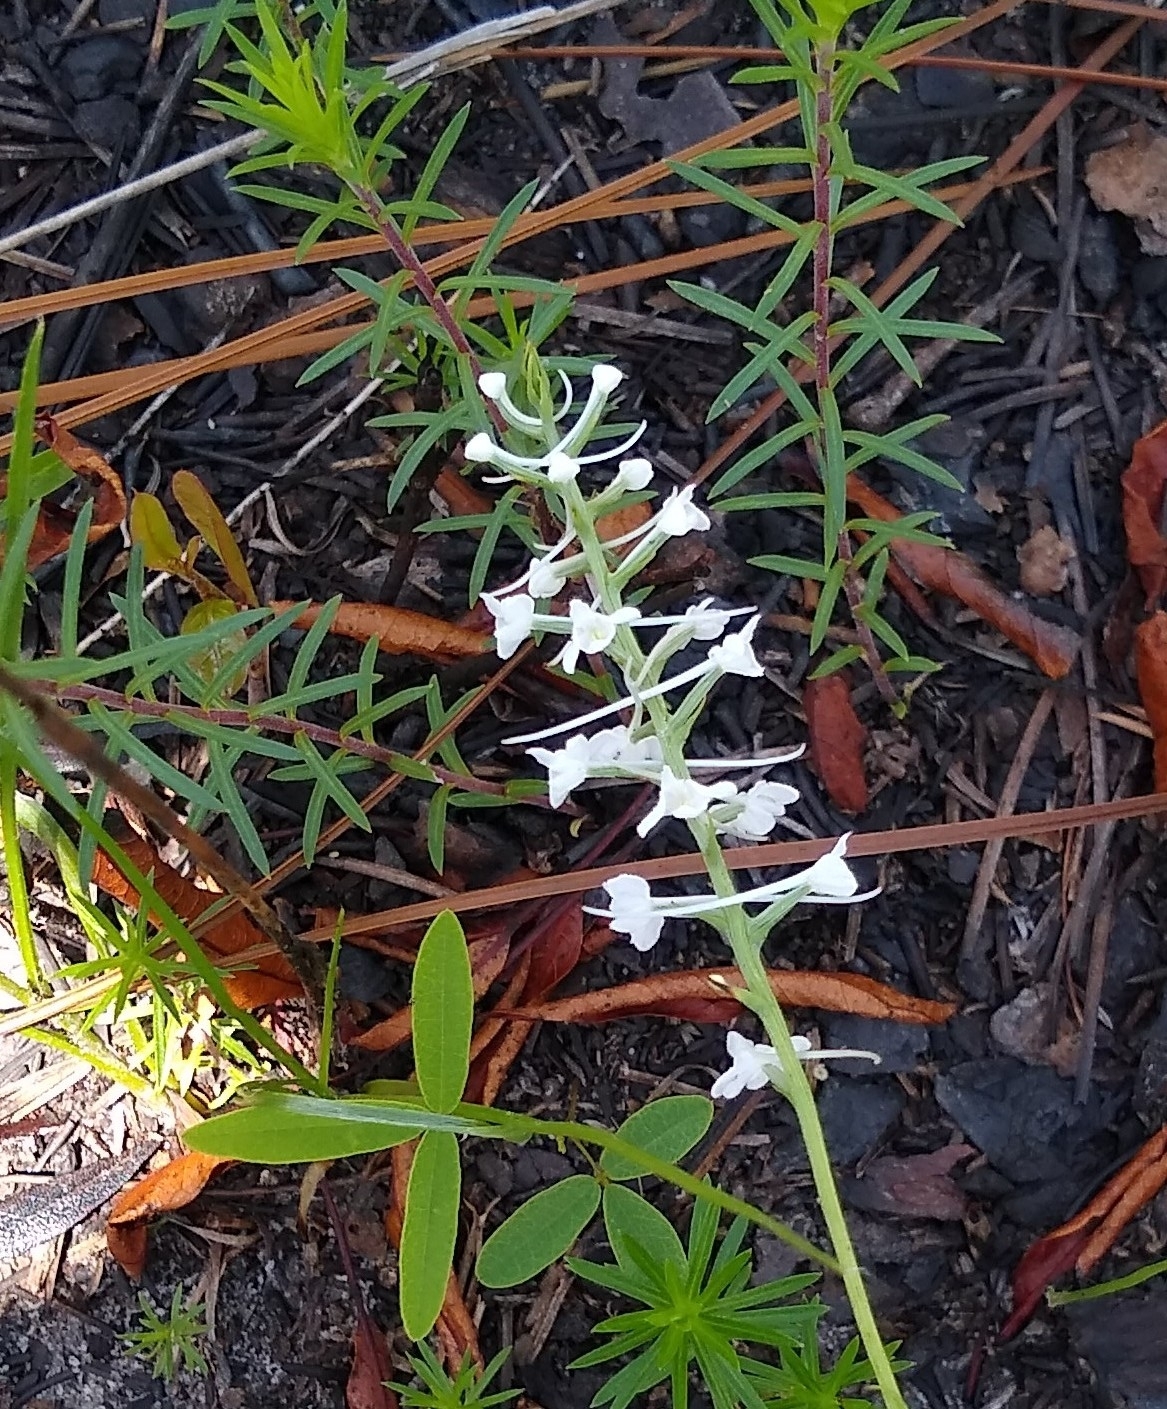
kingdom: Plantae
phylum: Tracheophyta
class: Liliopsida
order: Asparagales
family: Orchidaceae
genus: Platanthera
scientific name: Platanthera nivea
